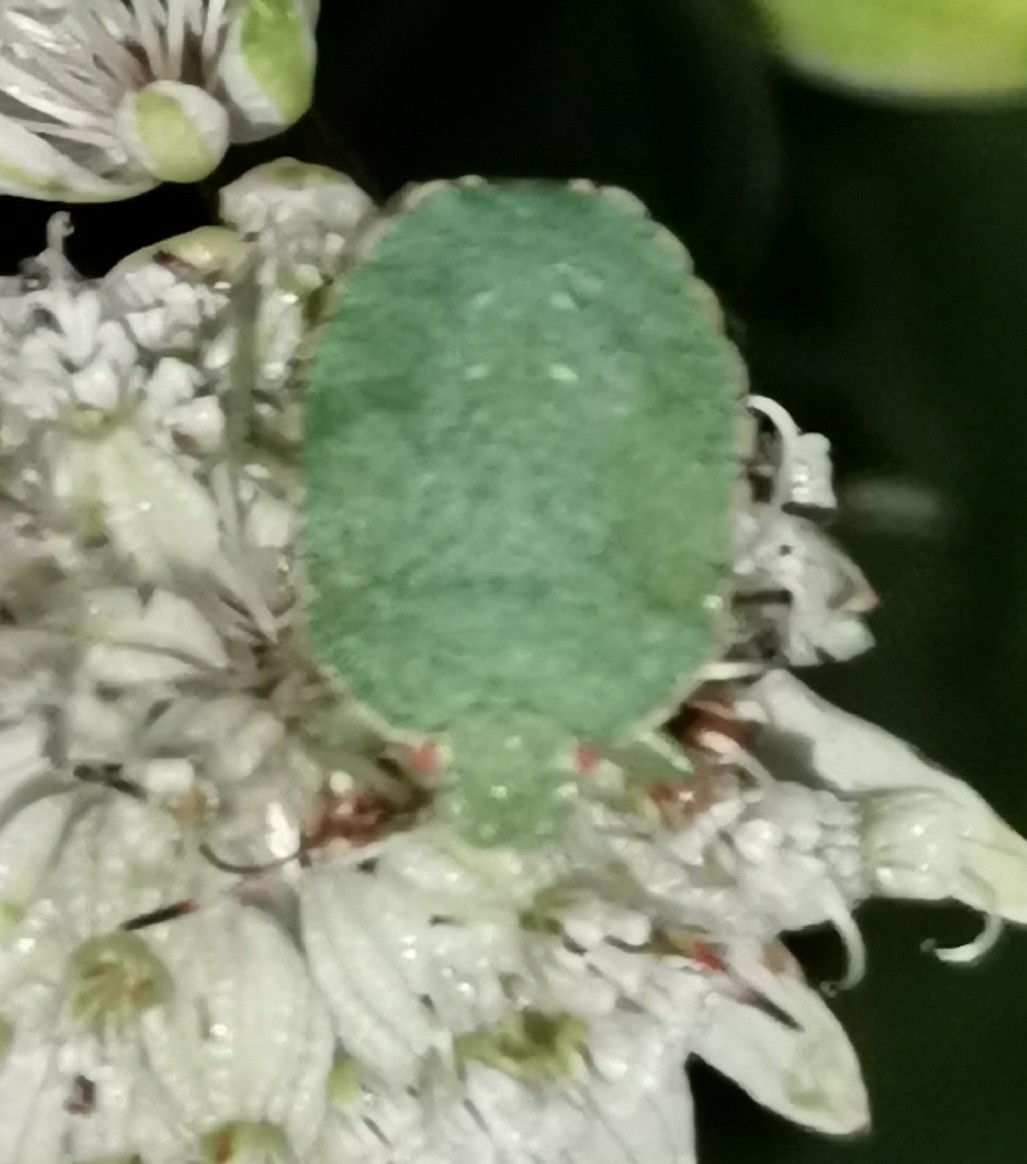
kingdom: Animalia
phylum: Arthropoda
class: Insecta
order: Hemiptera
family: Pentatomidae
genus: Palomena
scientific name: Palomena prasina
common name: Green shieldbug
